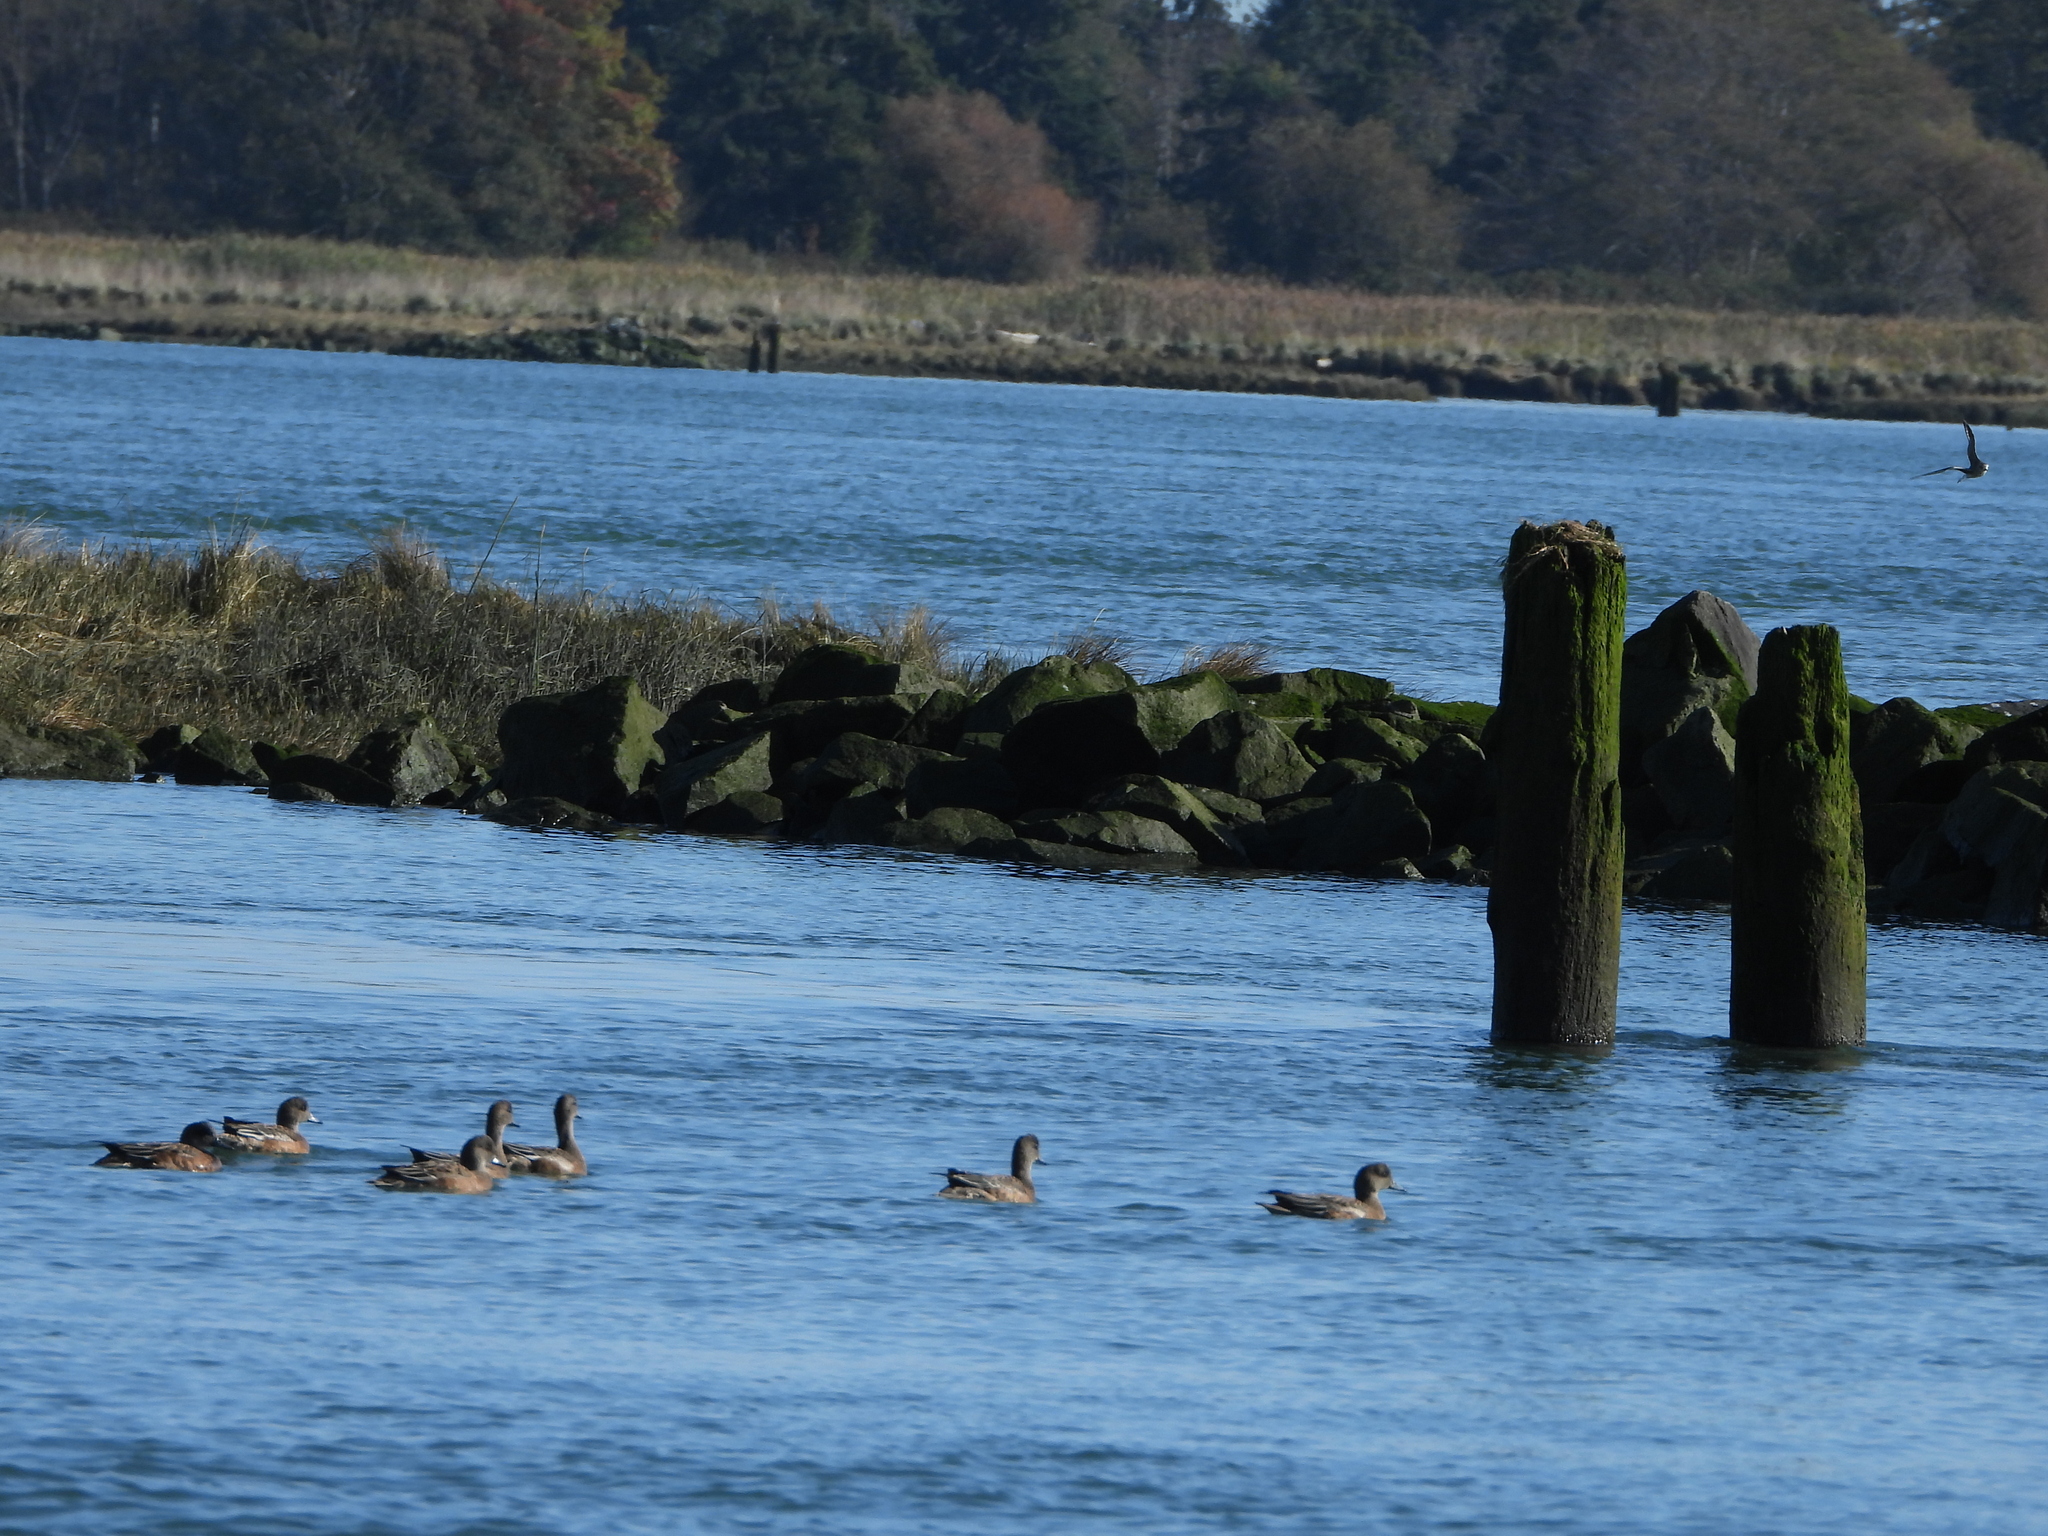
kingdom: Animalia
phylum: Chordata
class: Aves
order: Anseriformes
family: Anatidae
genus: Mareca
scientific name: Mareca penelope
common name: Eurasian wigeon
